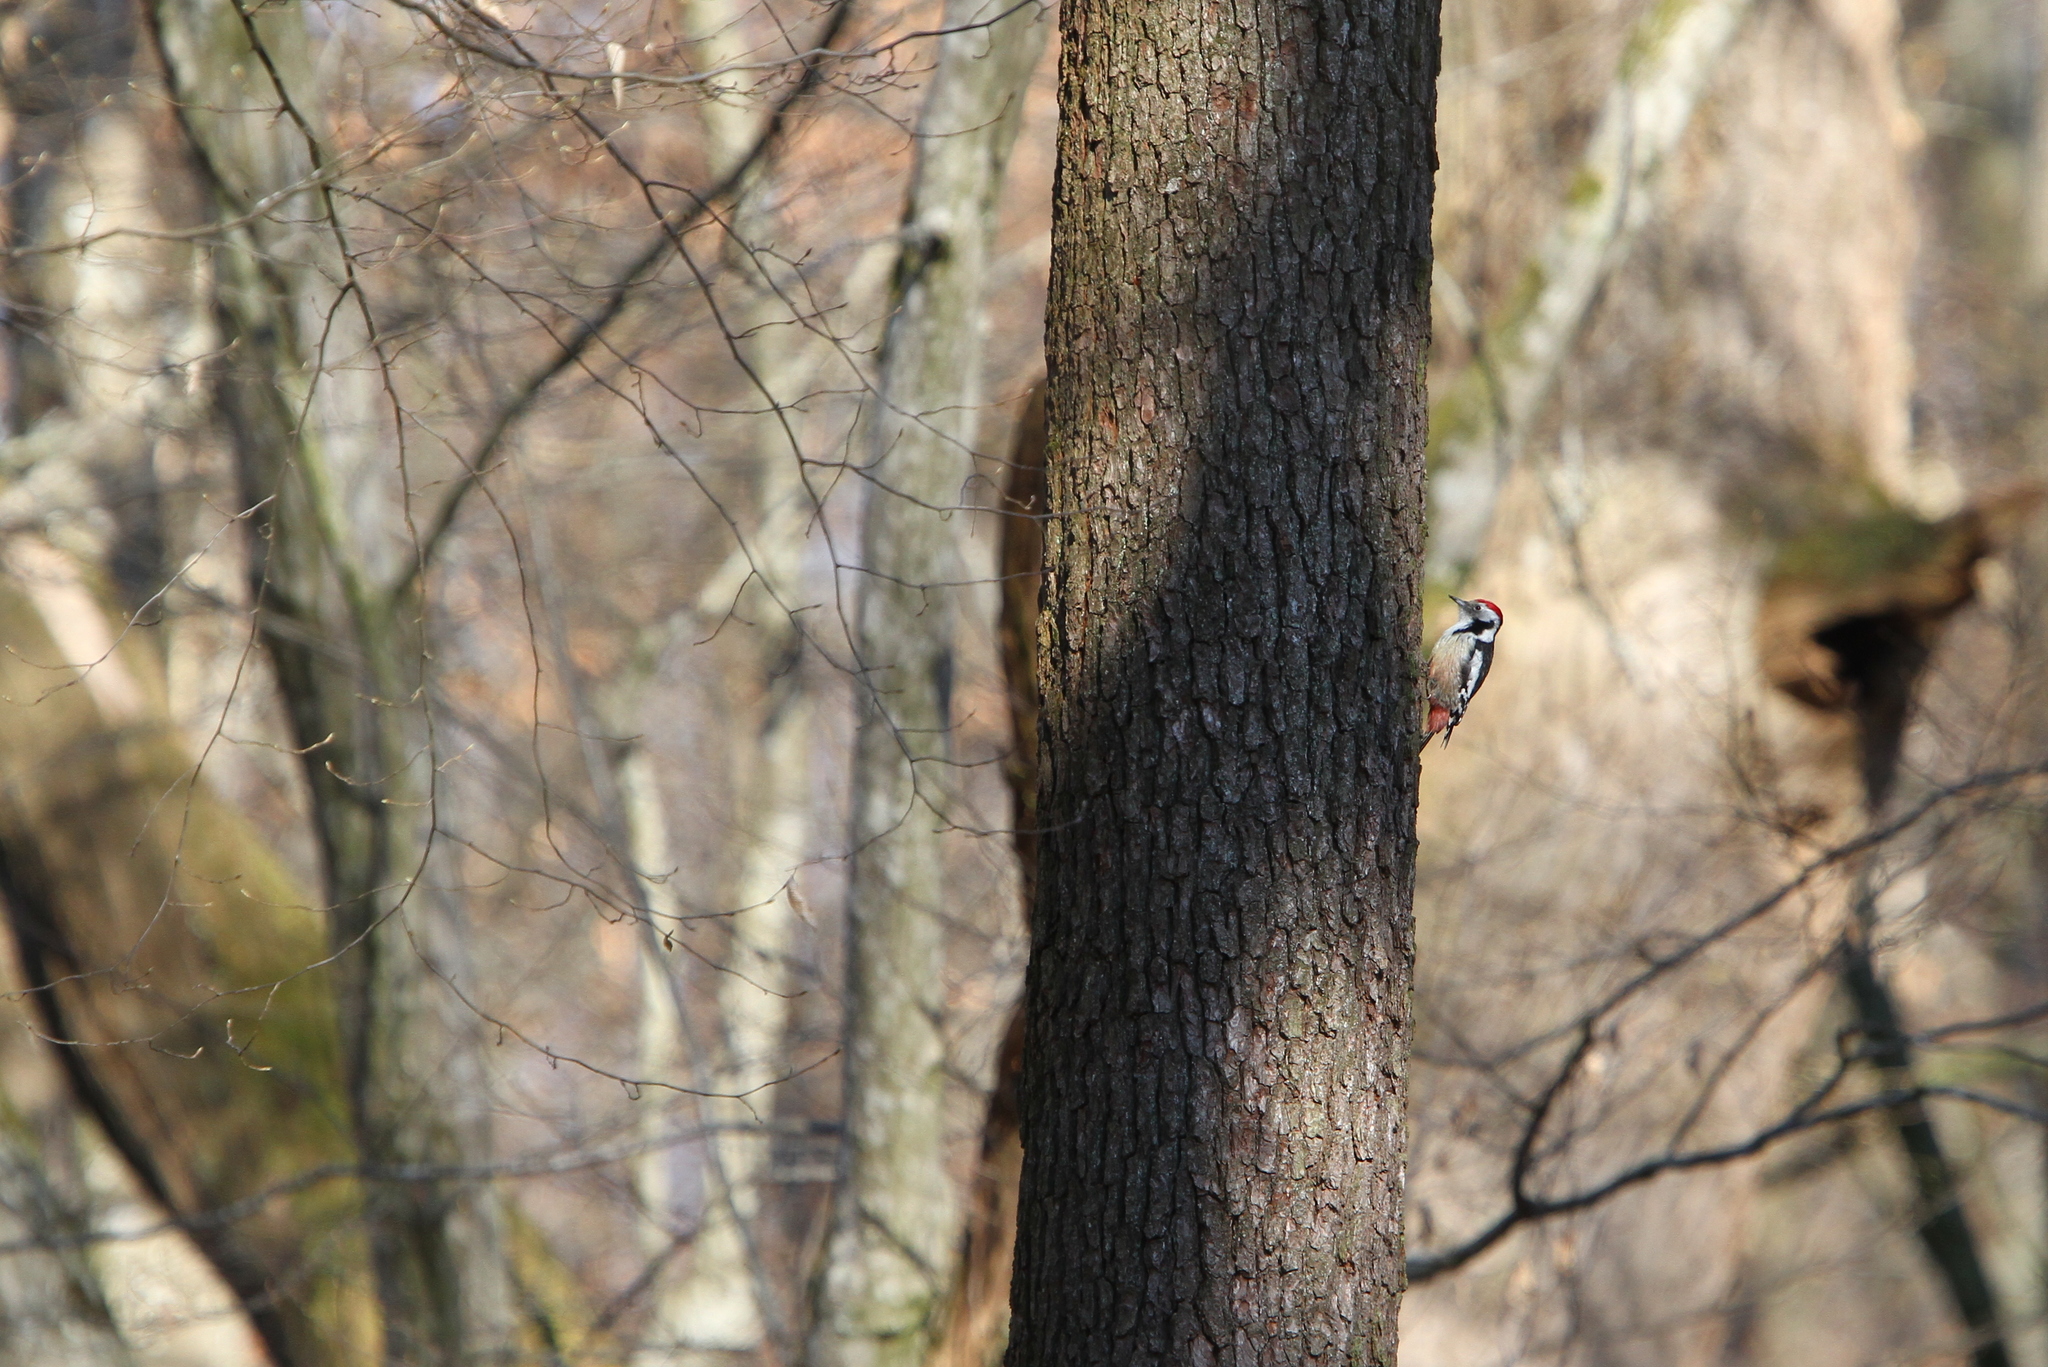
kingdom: Animalia
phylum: Chordata
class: Aves
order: Piciformes
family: Picidae
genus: Dendrocoptes
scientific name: Dendrocoptes medius
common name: Middle spotted woodpecker
